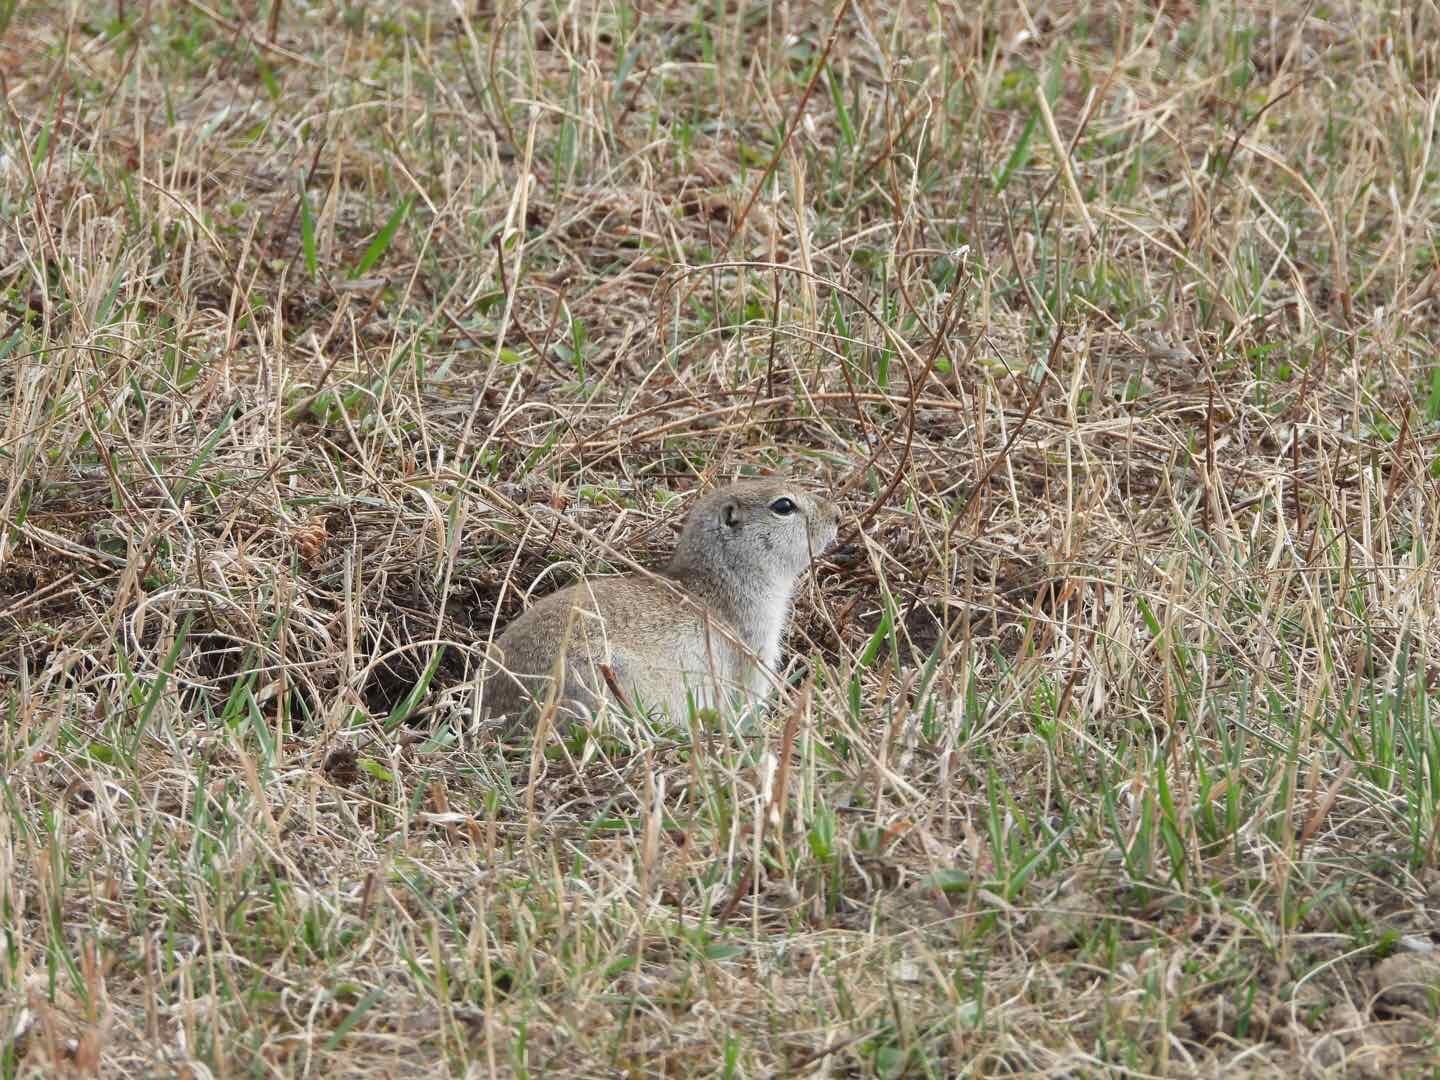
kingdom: Animalia
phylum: Chordata
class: Mammalia
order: Rodentia
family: Sciuridae
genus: Urocitellus
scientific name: Urocitellus undulatus
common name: Long-tailed ground squirrel
